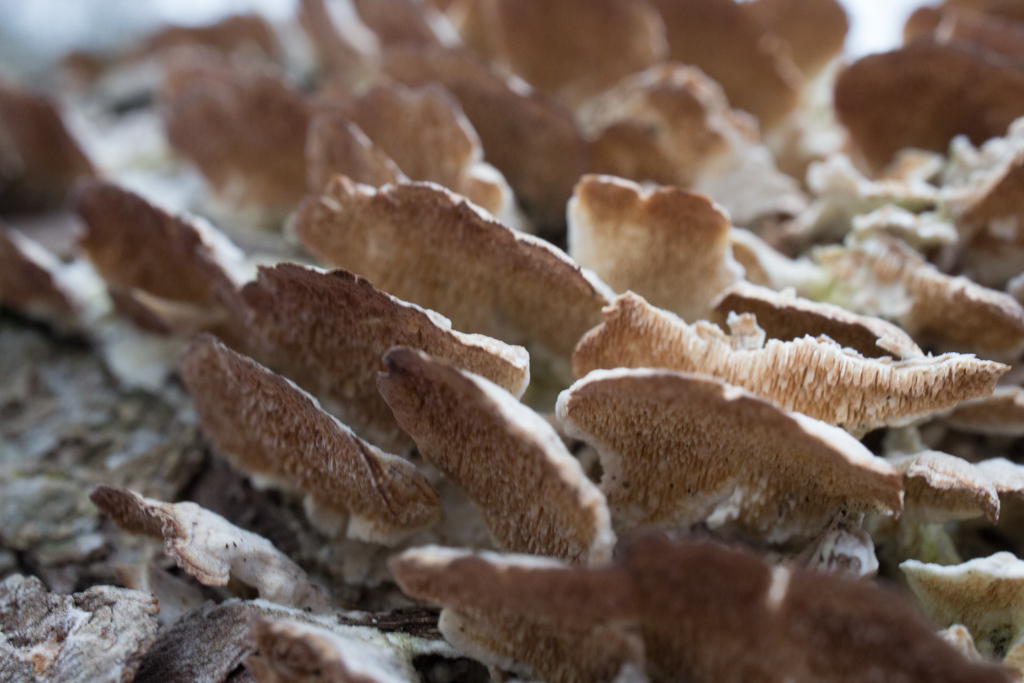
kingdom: Fungi
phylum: Basidiomycota
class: Agaricomycetes
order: Hymenochaetales
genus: Trichaptum
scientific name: Trichaptum biforme
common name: Violet-toothed polypore
